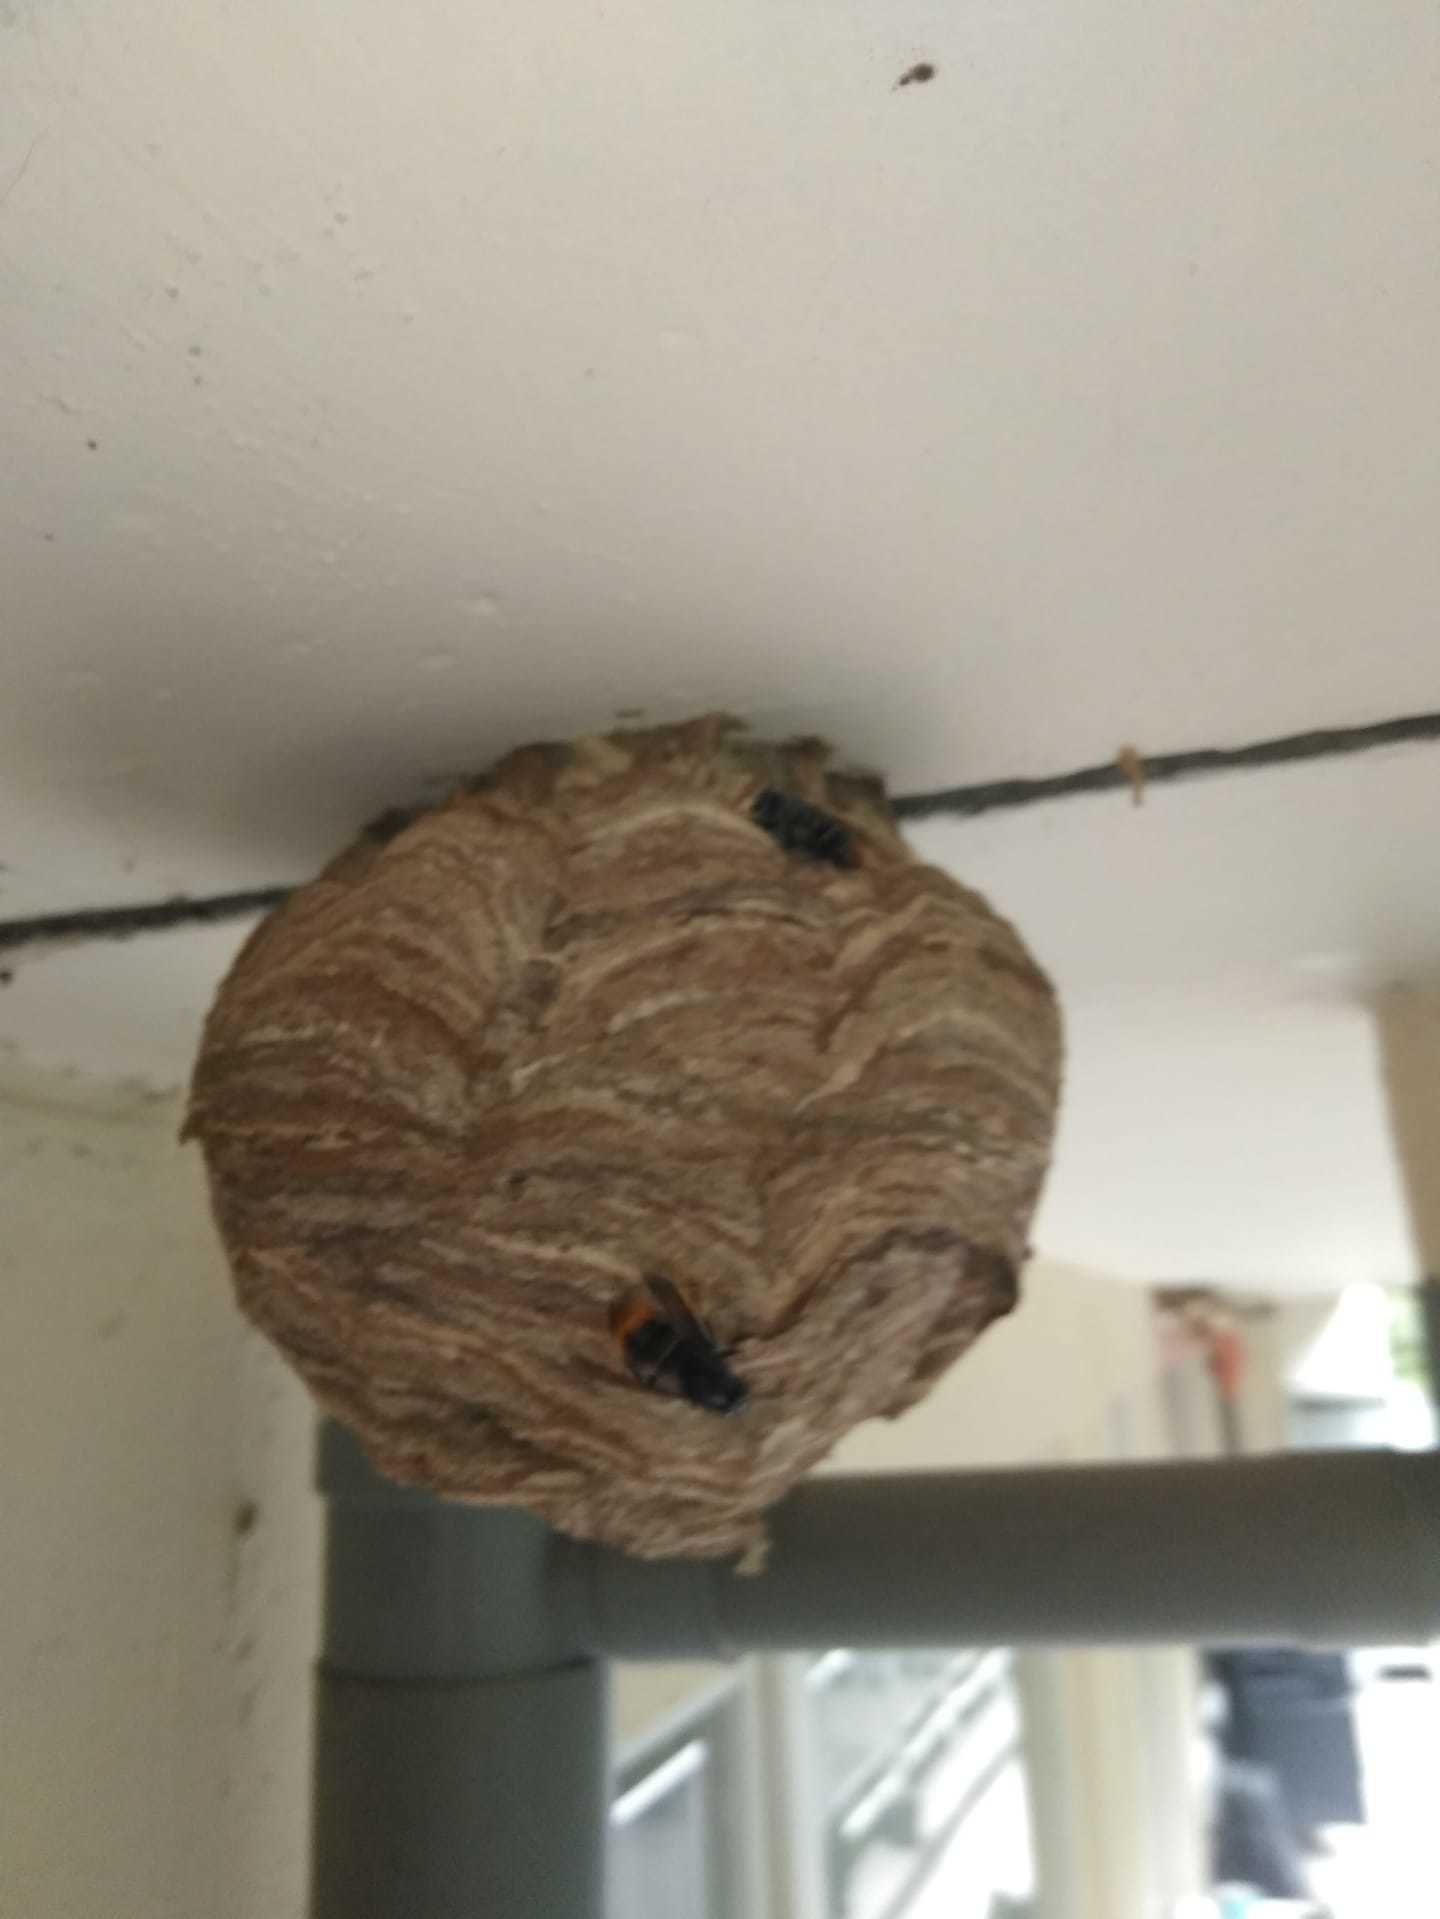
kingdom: Animalia
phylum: Arthropoda
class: Insecta
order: Hymenoptera
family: Vespidae
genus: Vespa
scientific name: Vespa velutina
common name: Asian hornet
